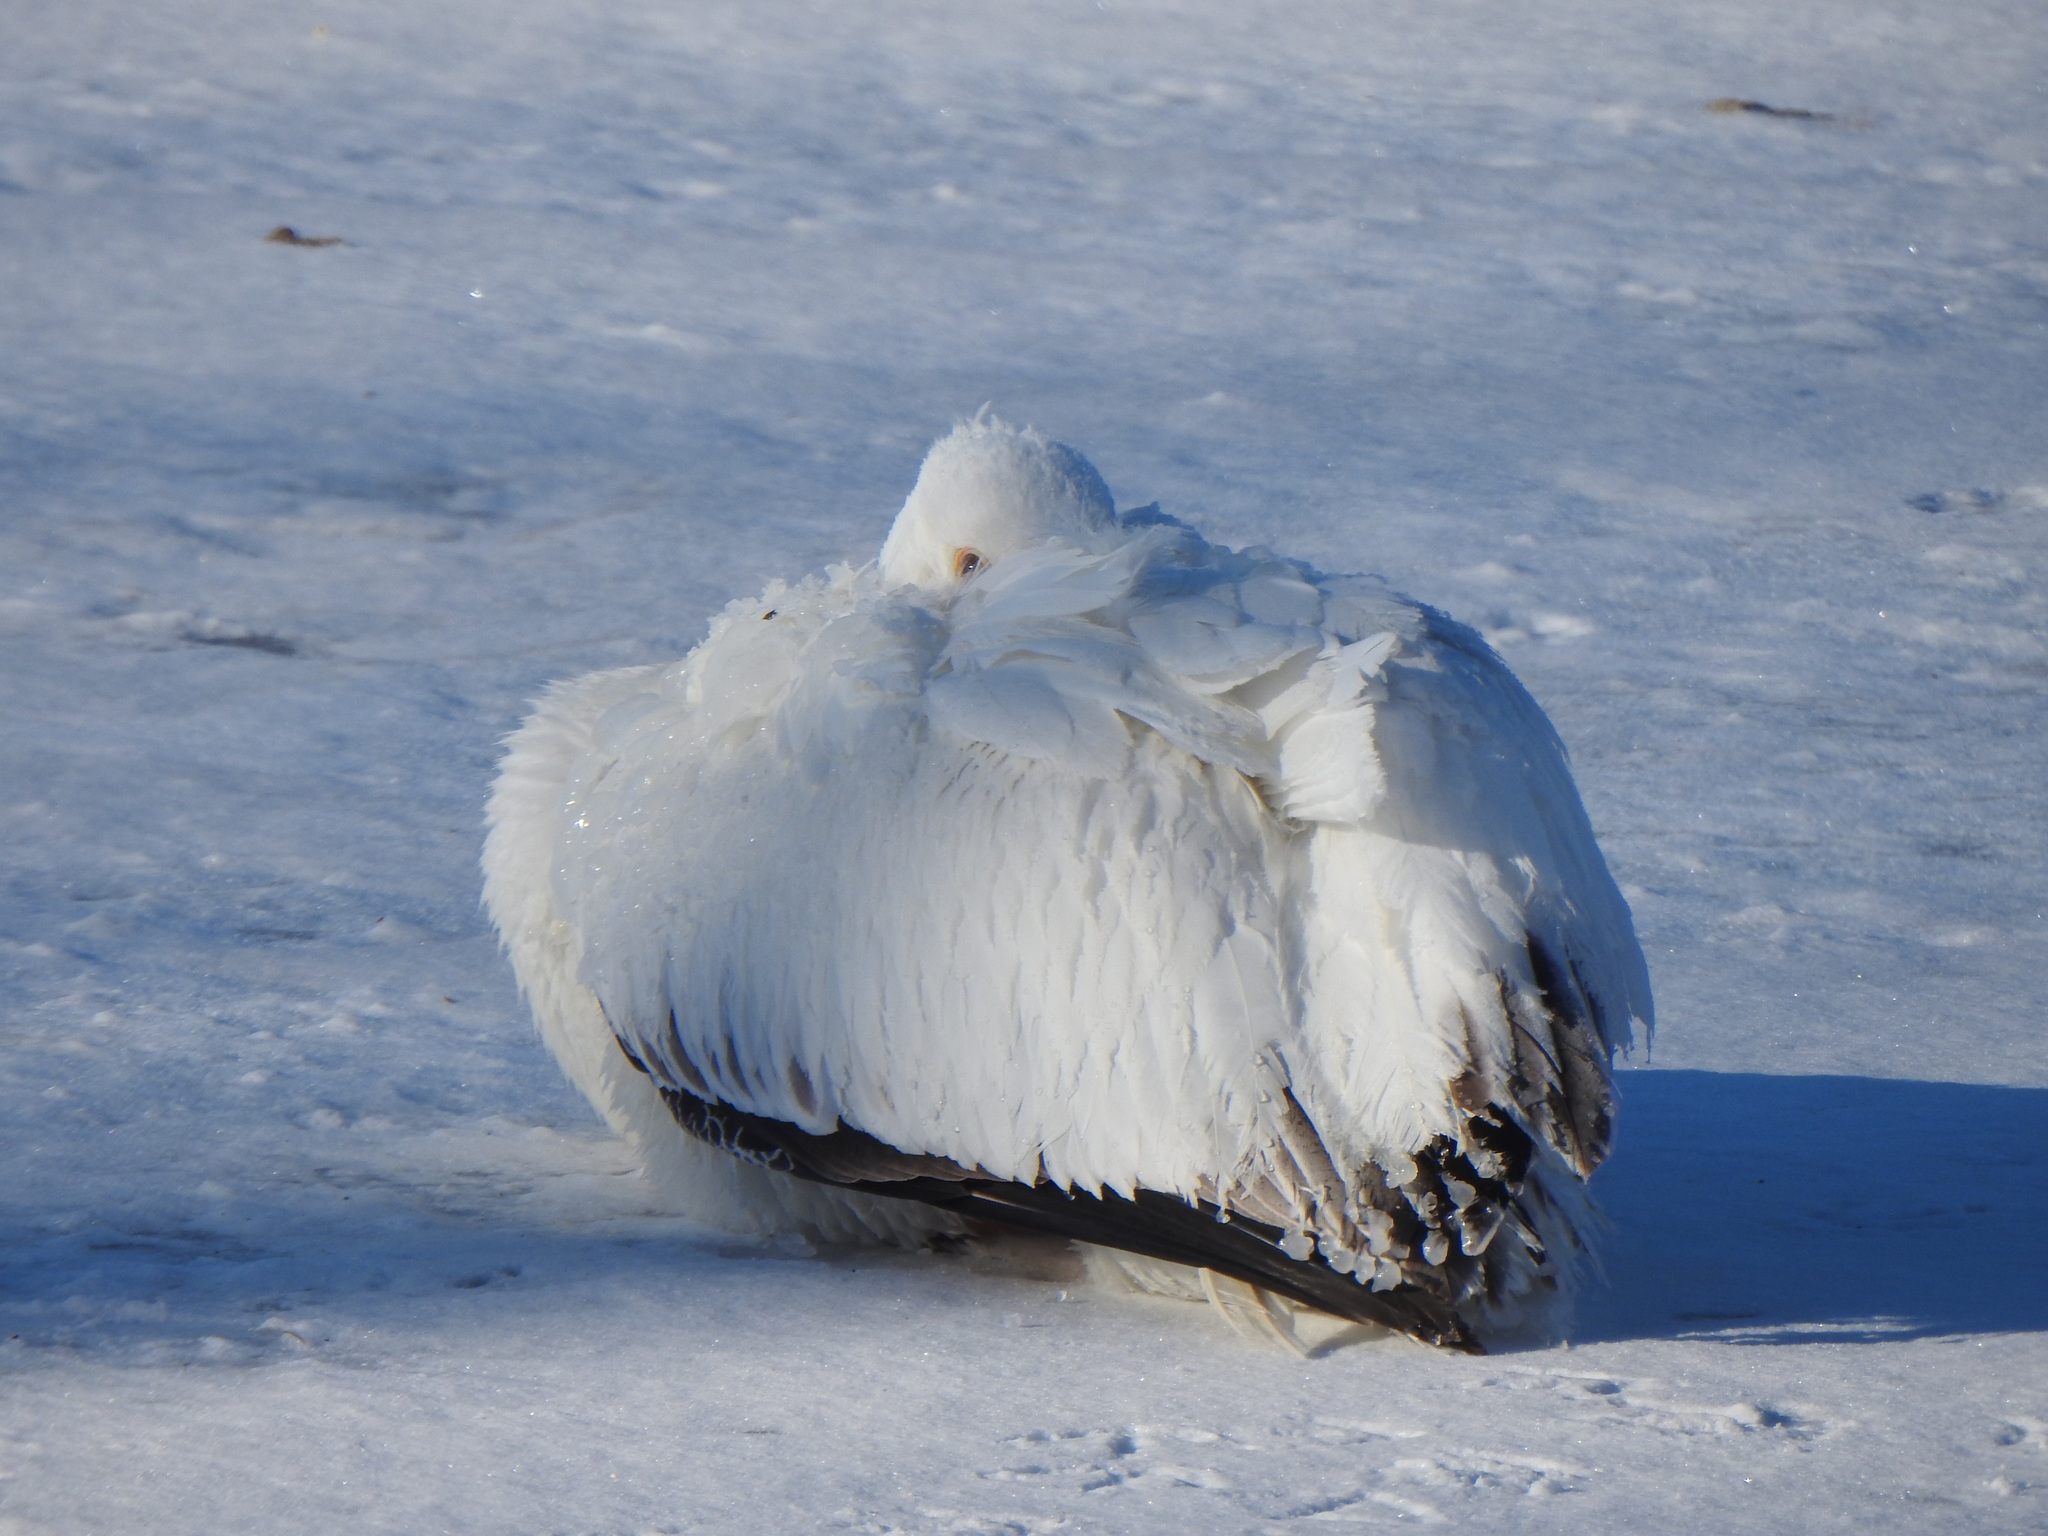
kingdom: Animalia
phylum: Chordata
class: Aves
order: Pelecaniformes
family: Pelecanidae
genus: Pelecanus
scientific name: Pelecanus erythrorhynchos
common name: American white pelican
